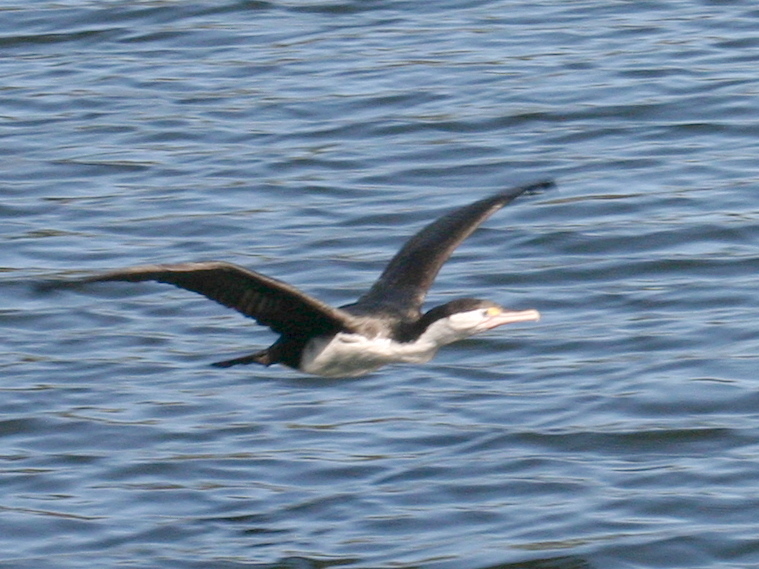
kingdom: Animalia
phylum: Chordata
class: Aves
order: Suliformes
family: Phalacrocoracidae
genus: Phalacrocorax
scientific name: Phalacrocorax varius
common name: Pied cormorant
